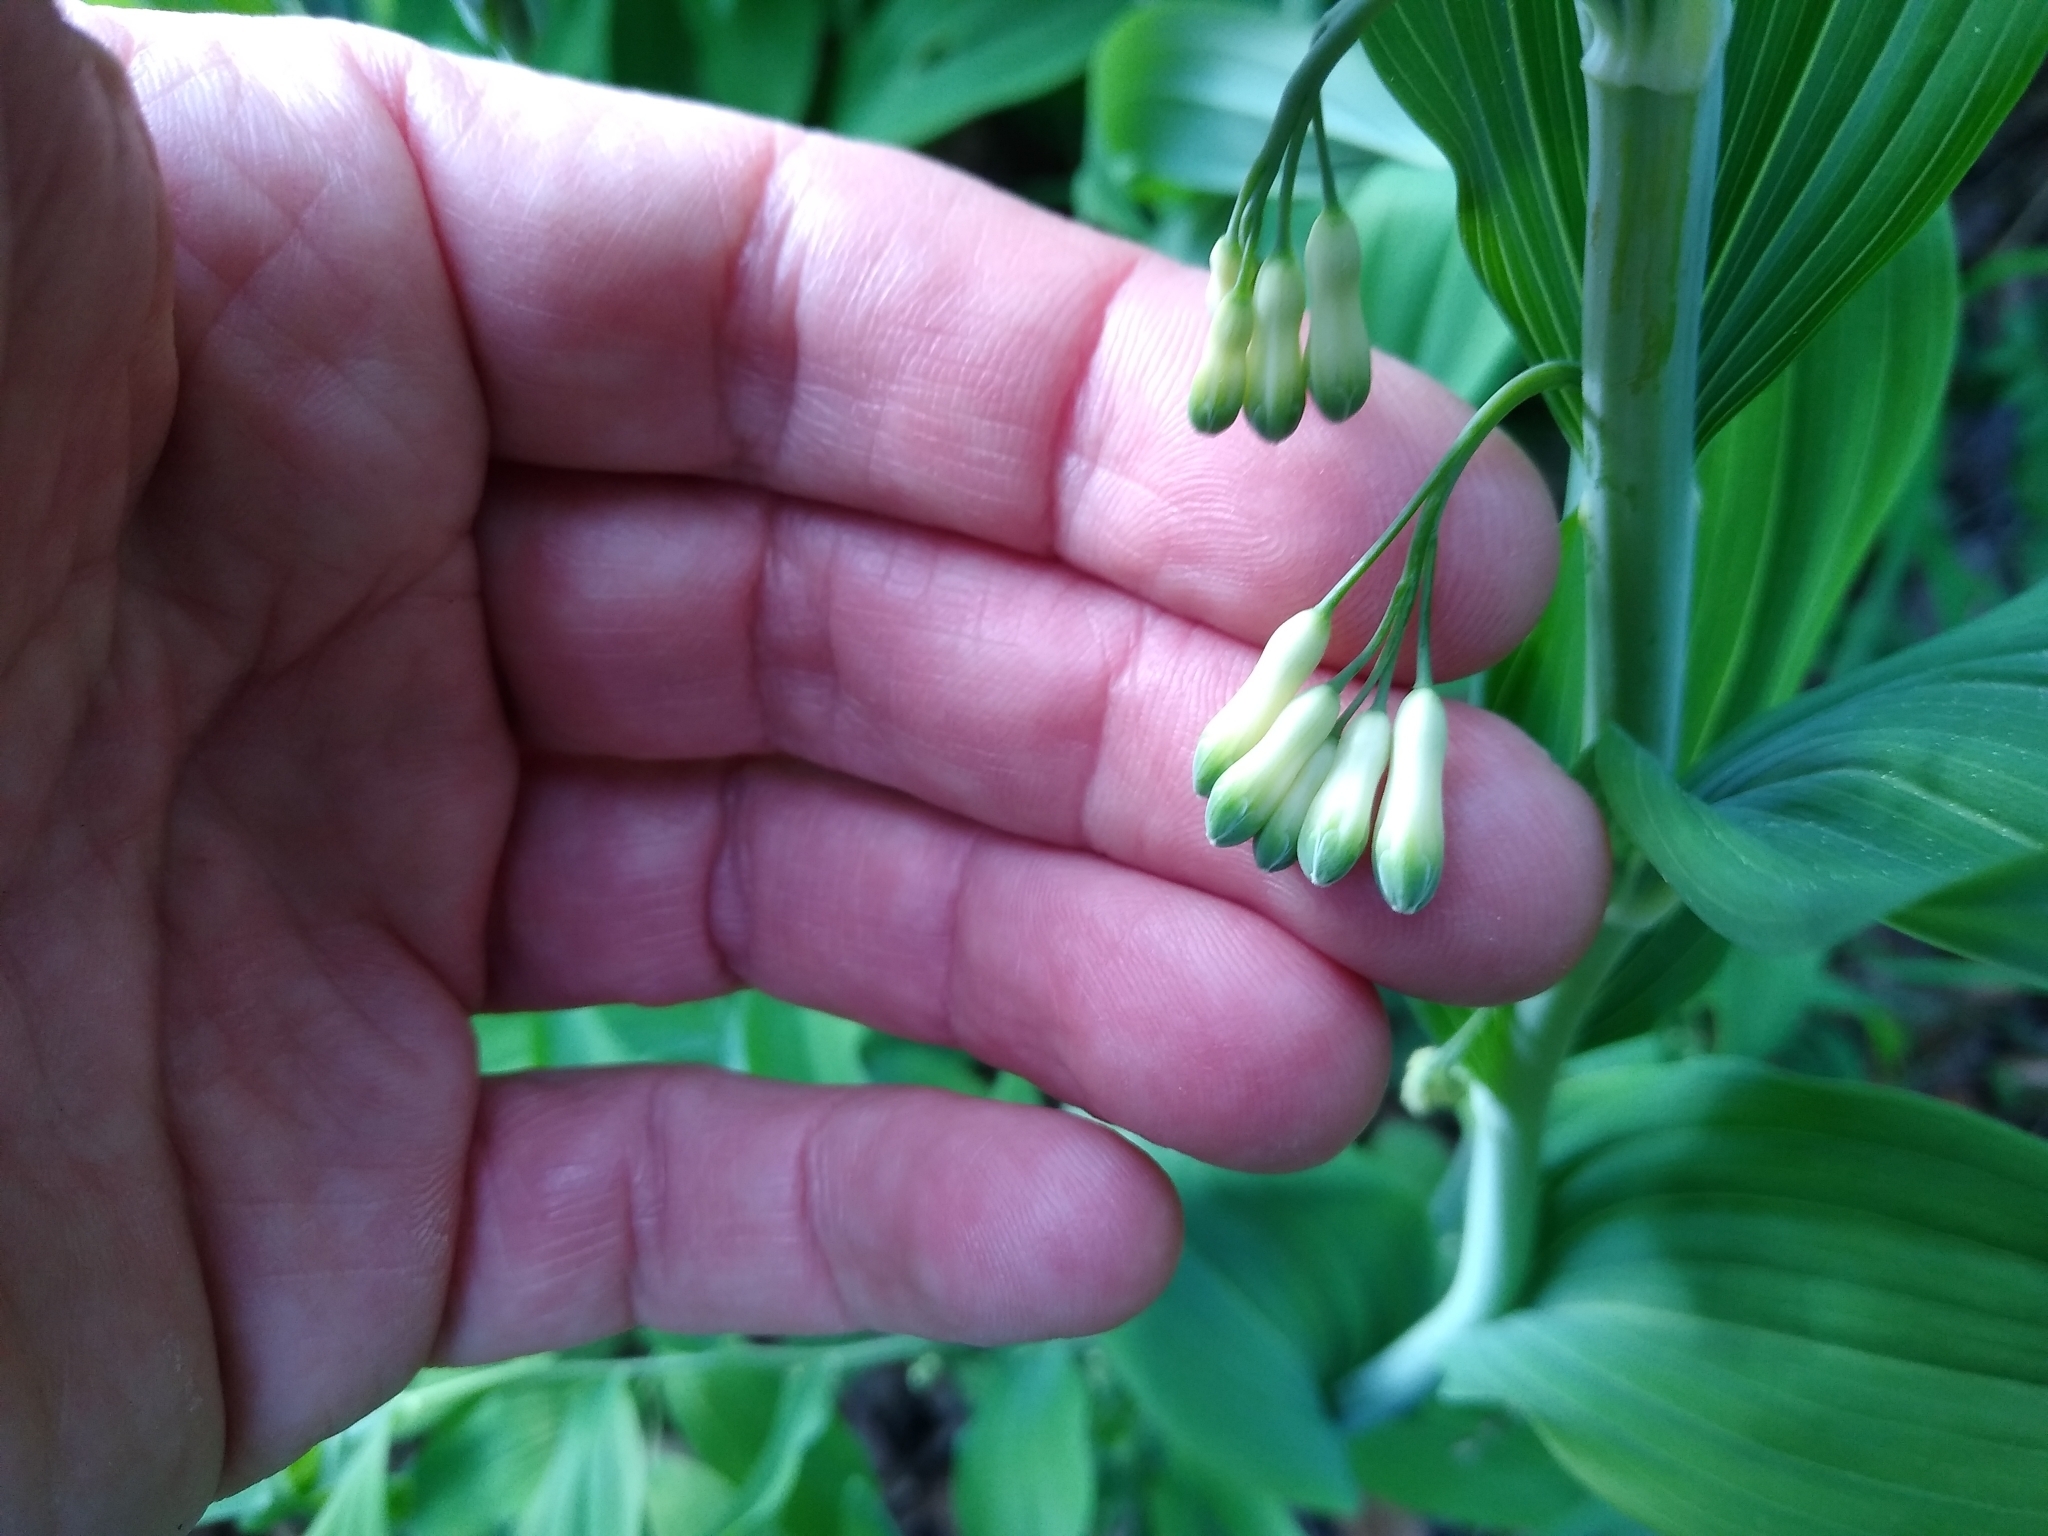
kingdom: Plantae
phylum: Tracheophyta
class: Liliopsida
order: Asparagales
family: Asparagaceae
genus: Polygonatum
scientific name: Polygonatum multiflorum
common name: Solomon's-seal
